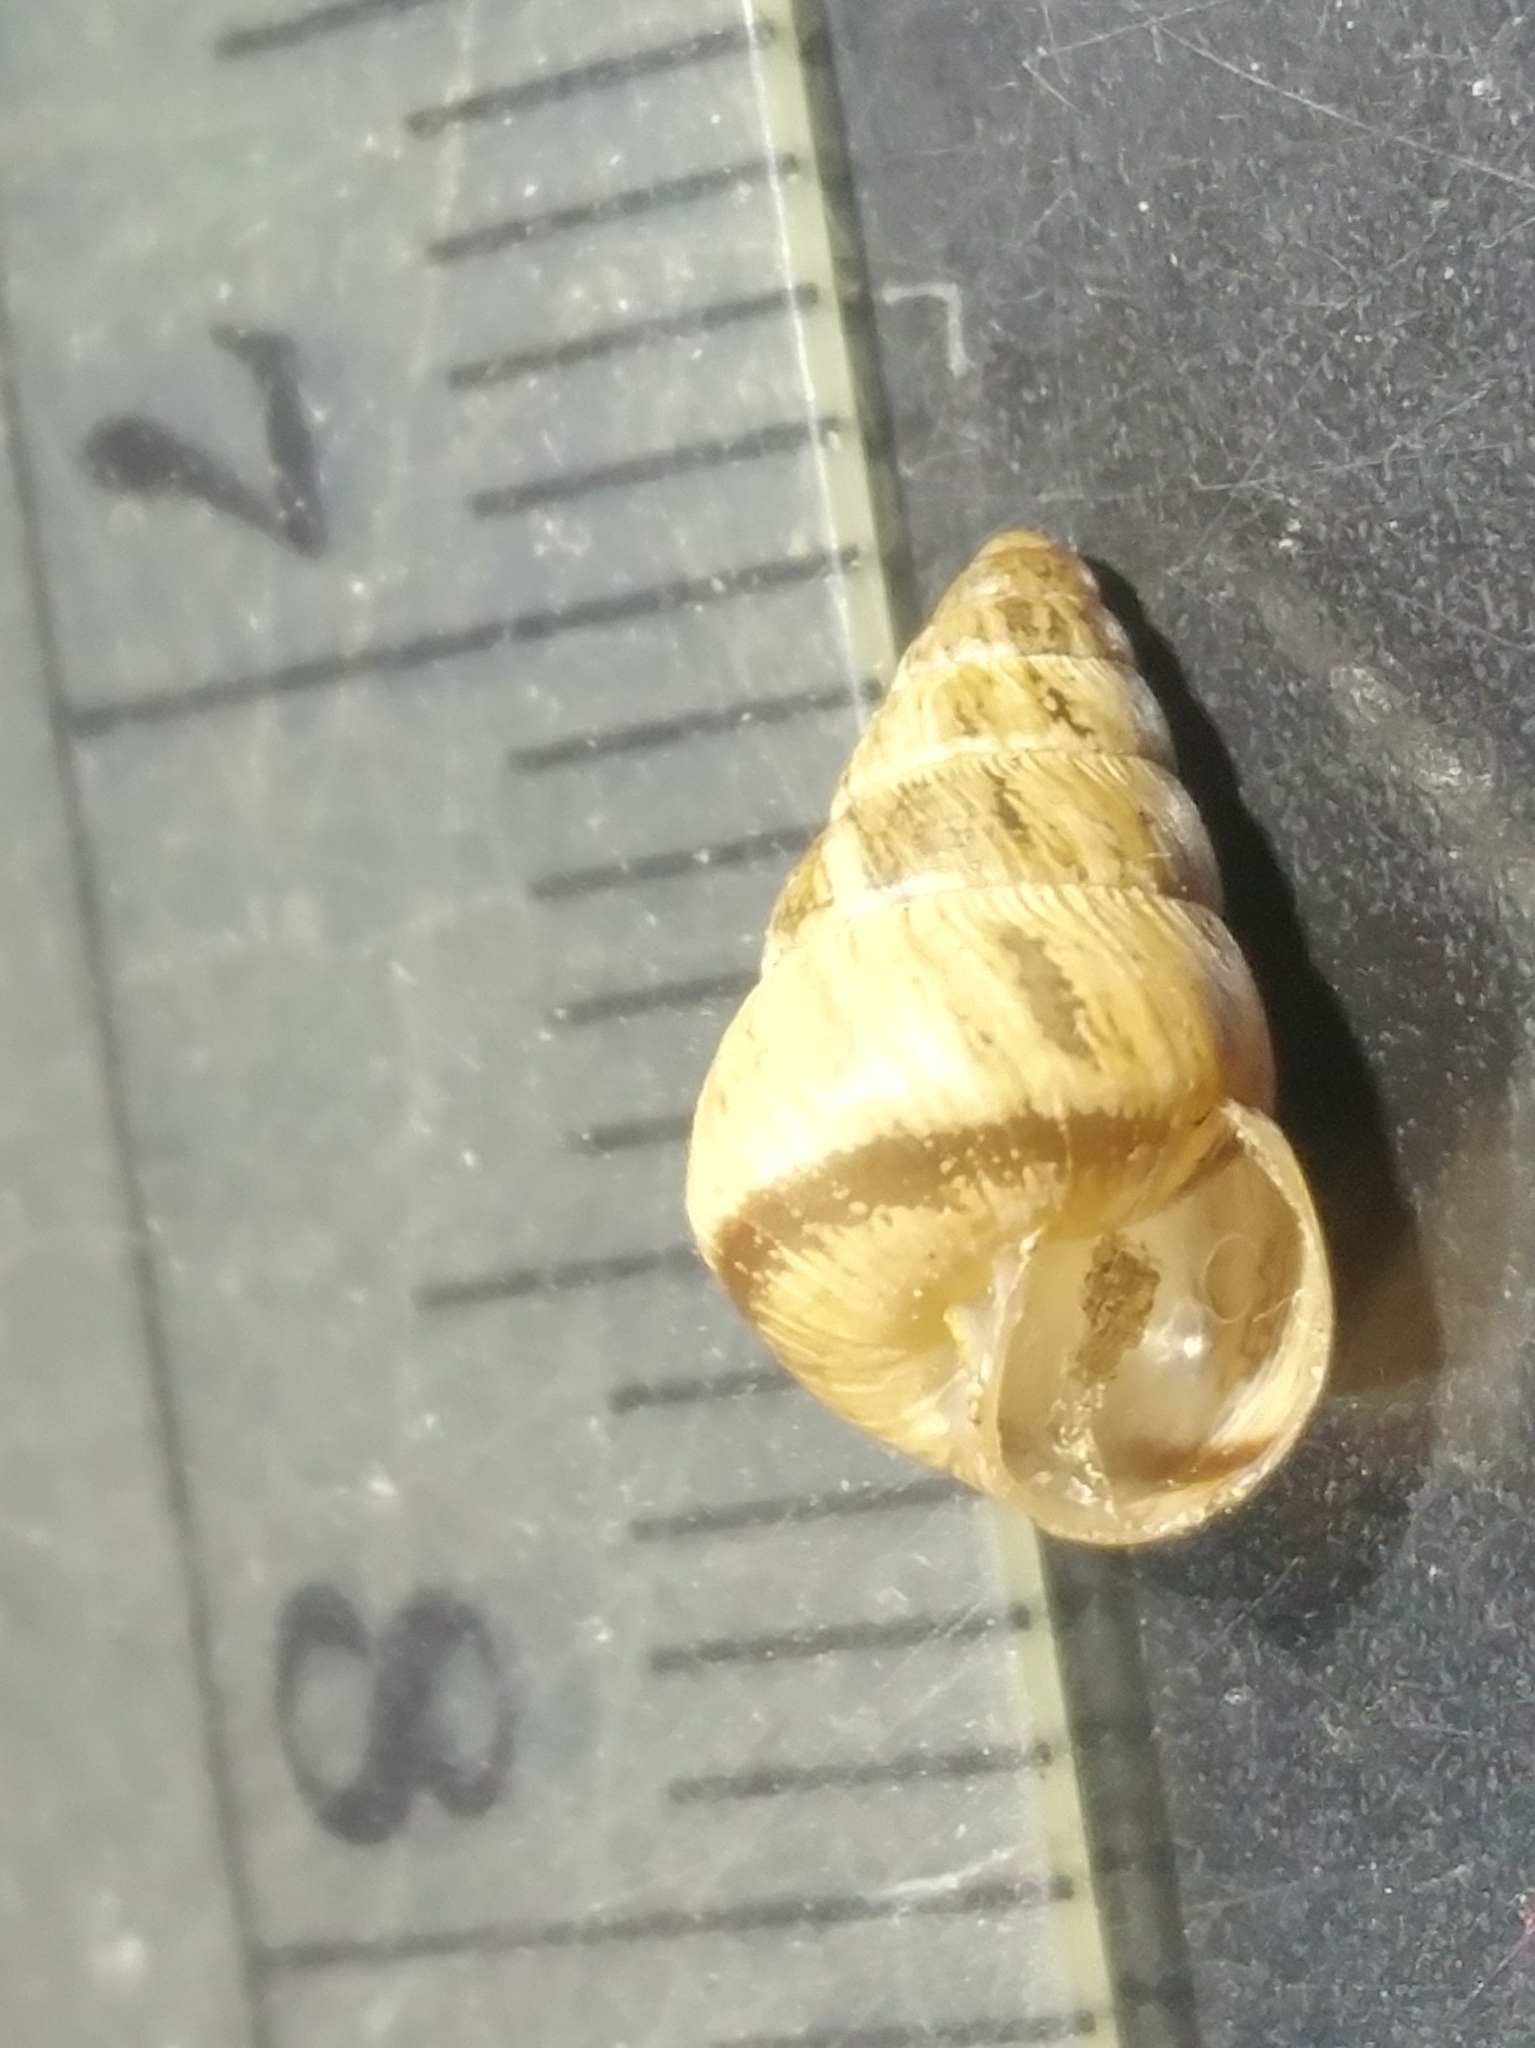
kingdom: Animalia
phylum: Mollusca
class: Gastropoda
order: Stylommatophora
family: Geomitridae
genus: Cochlicella
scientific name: Cochlicella barbara
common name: Potbellied helicellid
